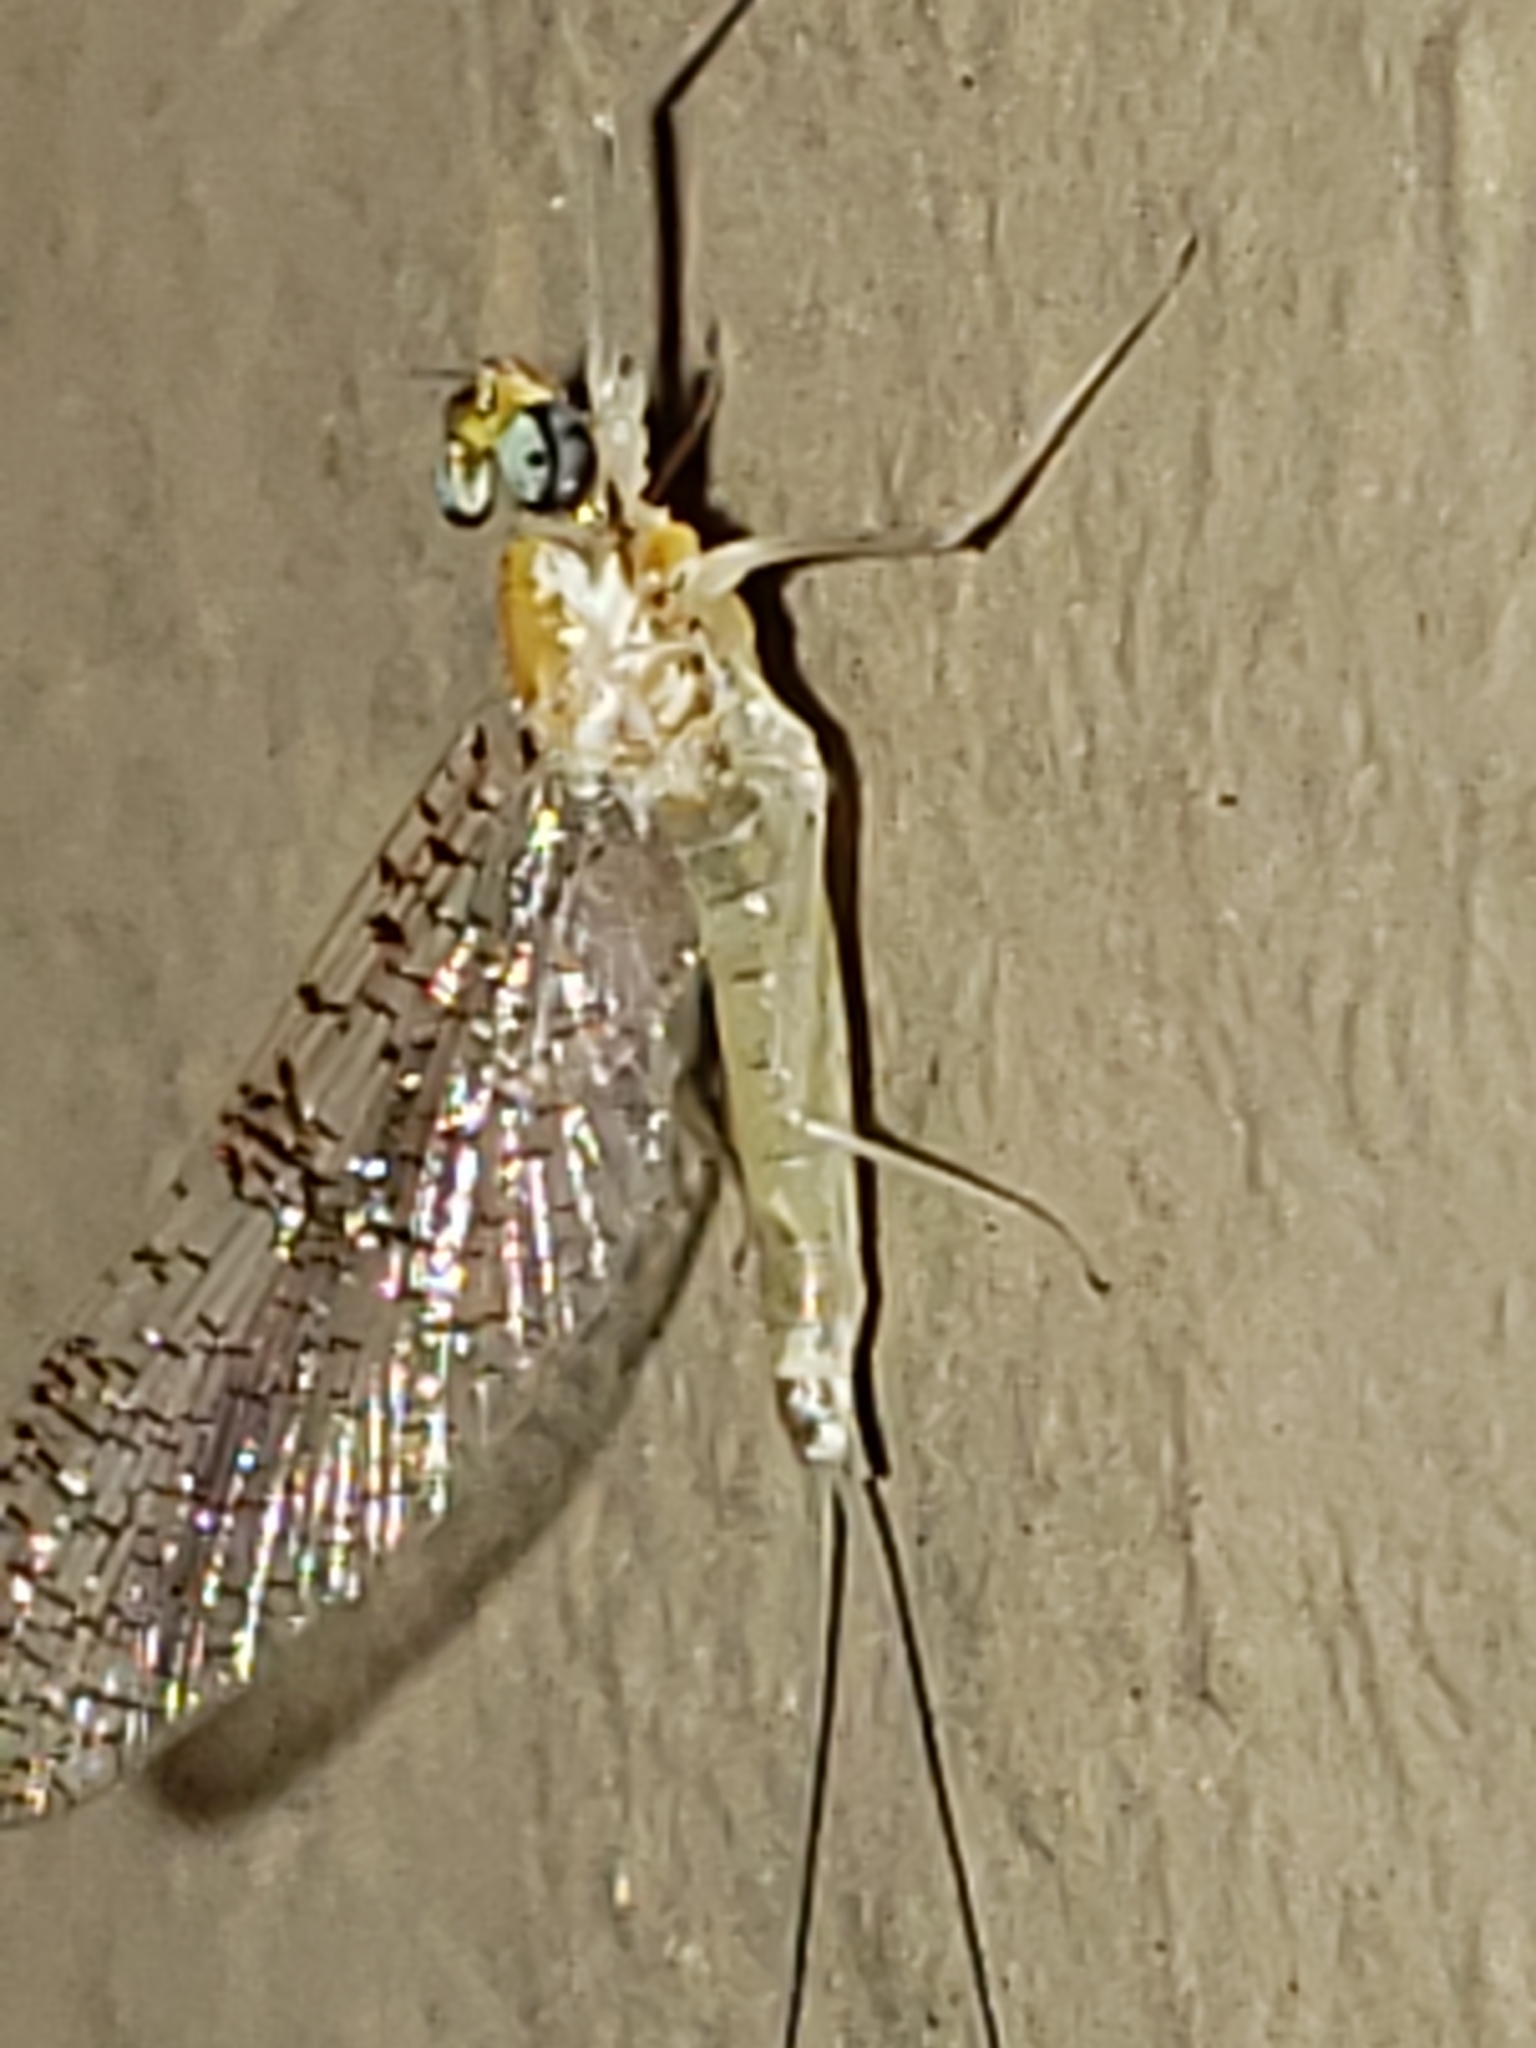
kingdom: Animalia
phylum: Arthropoda
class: Insecta
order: Ephemeroptera
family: Heptageniidae
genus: Leucrocuta
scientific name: Leucrocuta maculipennis
